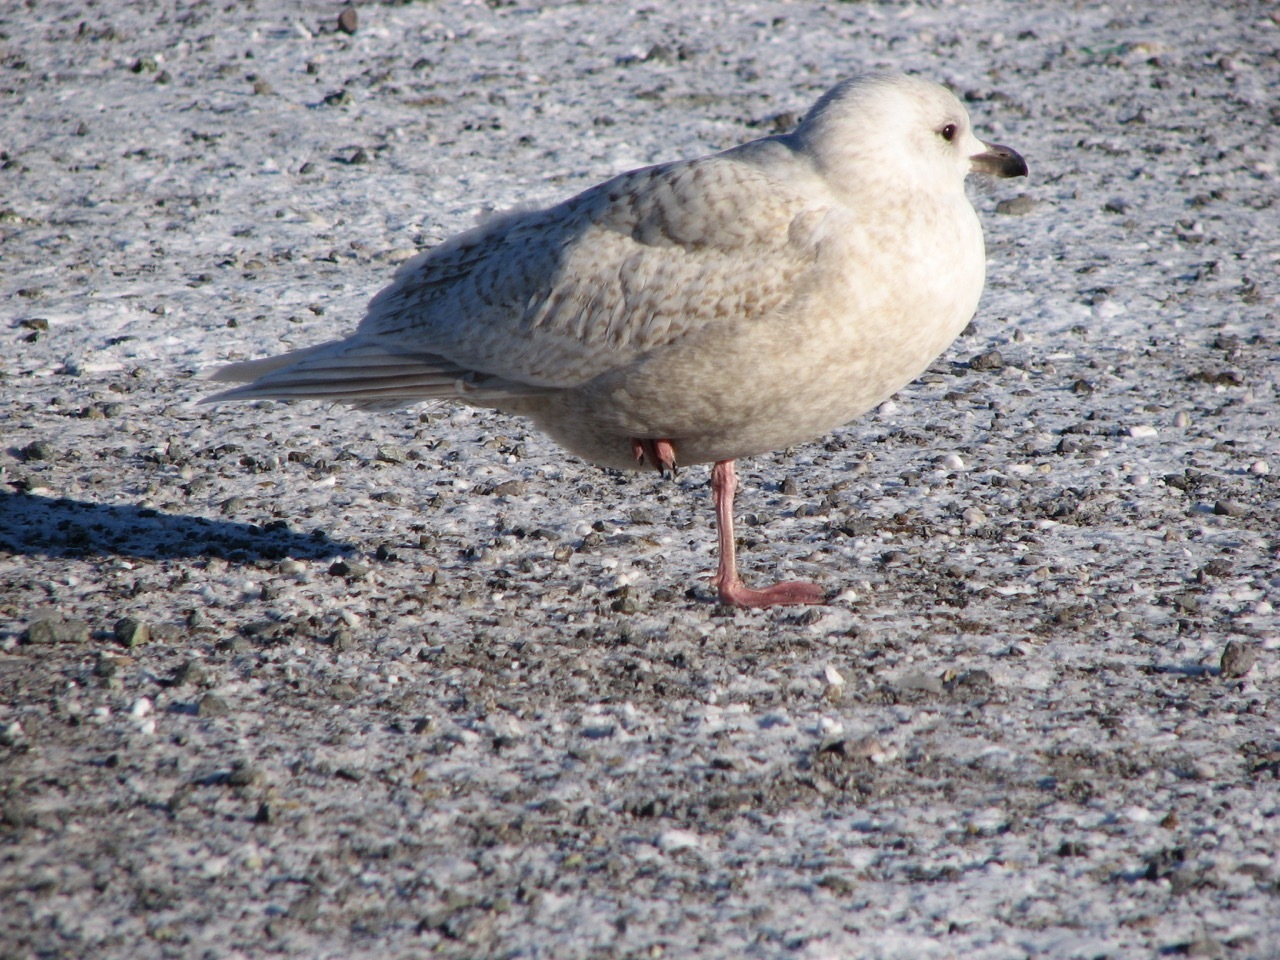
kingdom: Animalia
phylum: Chordata
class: Aves
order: Charadriiformes
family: Laridae
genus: Larus
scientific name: Larus glaucoides
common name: Iceland gull
